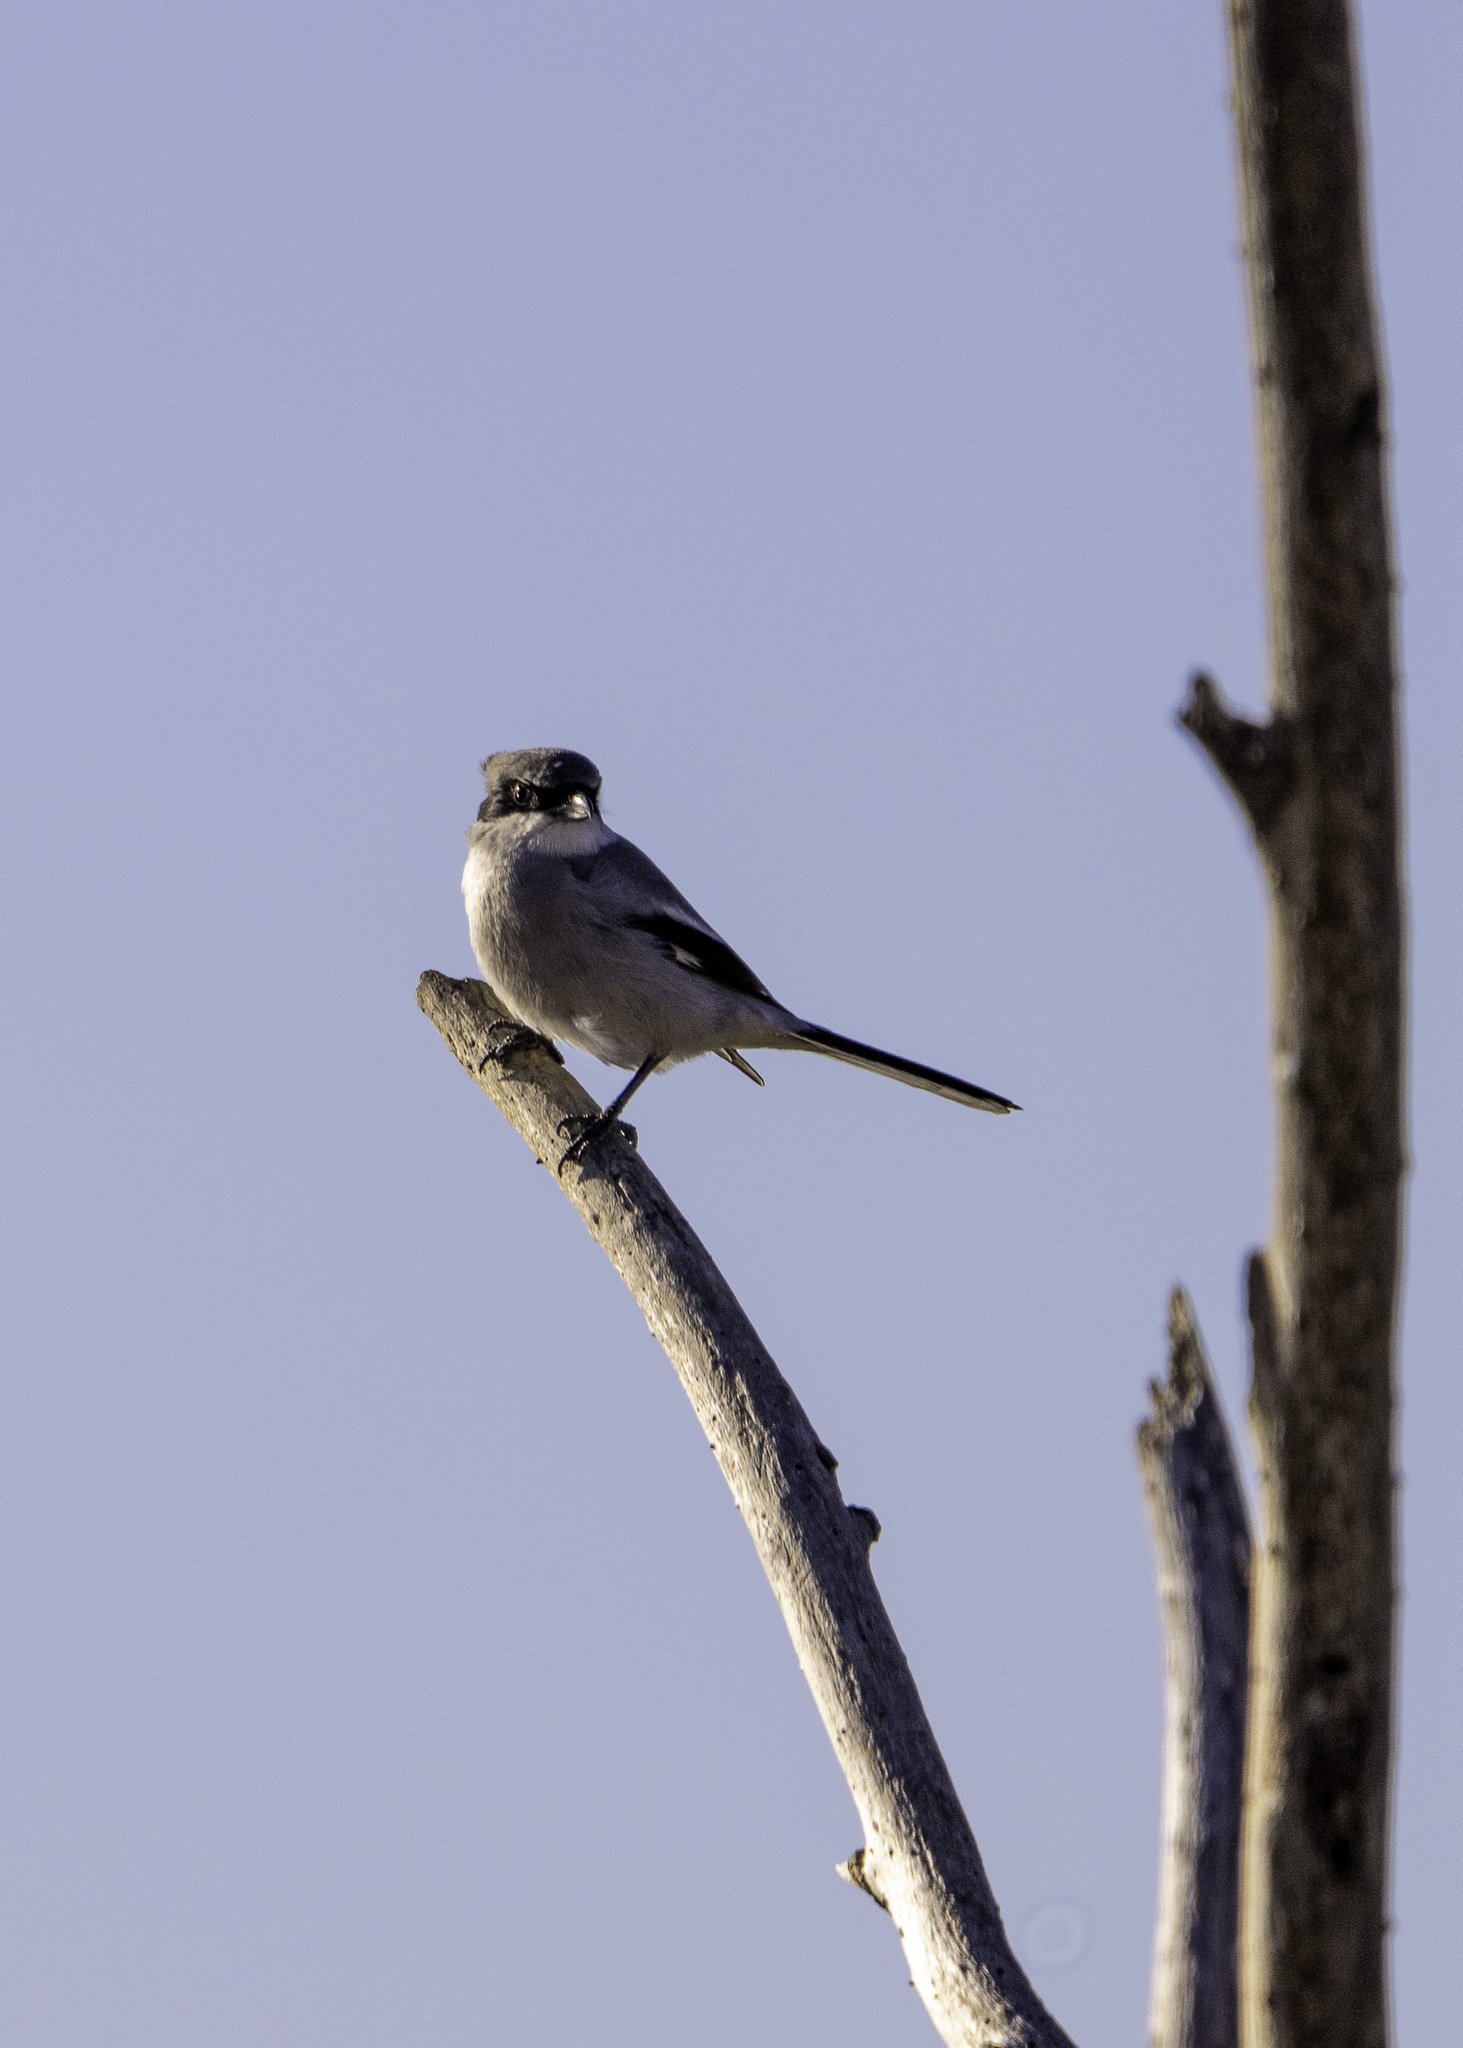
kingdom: Animalia
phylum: Chordata
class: Aves
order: Passeriformes
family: Laniidae
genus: Lanius
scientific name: Lanius ludovicianus
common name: Loggerhead shrike
